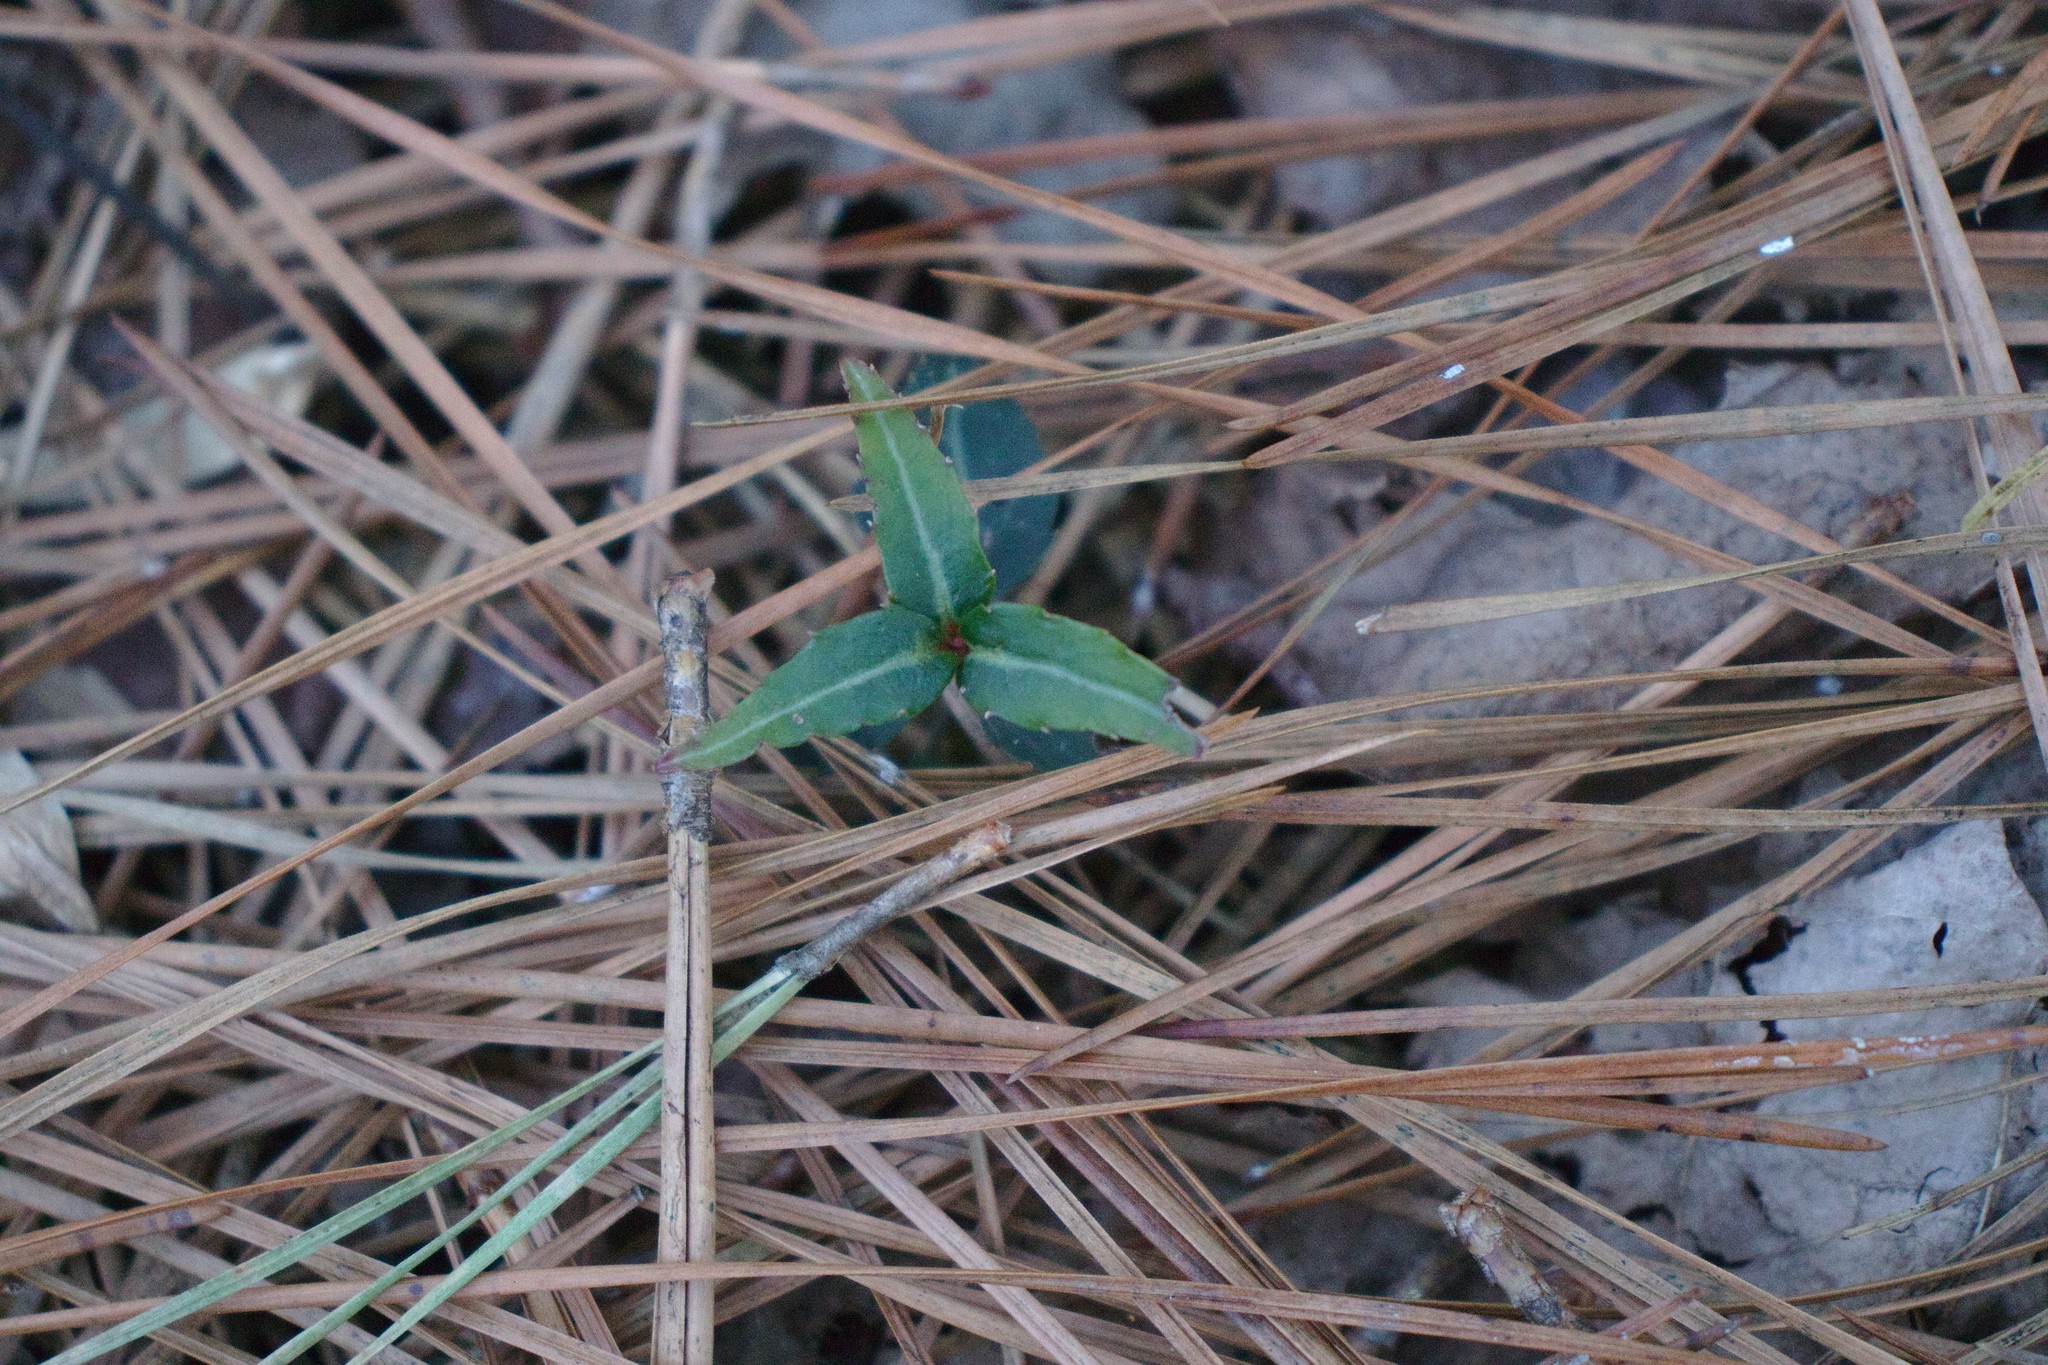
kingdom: Plantae
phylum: Tracheophyta
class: Magnoliopsida
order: Ericales
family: Ericaceae
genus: Chimaphila
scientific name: Chimaphila maculata
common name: Spotted pipsissewa
